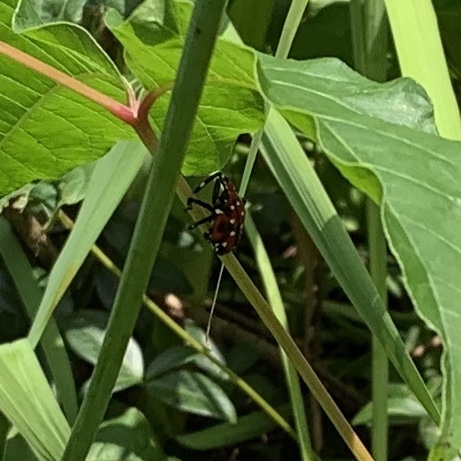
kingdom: Animalia
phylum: Arthropoda
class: Insecta
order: Hemiptera
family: Fulgoridae
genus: Lycorma
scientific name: Lycorma delicatula
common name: Spotted lanternfly
